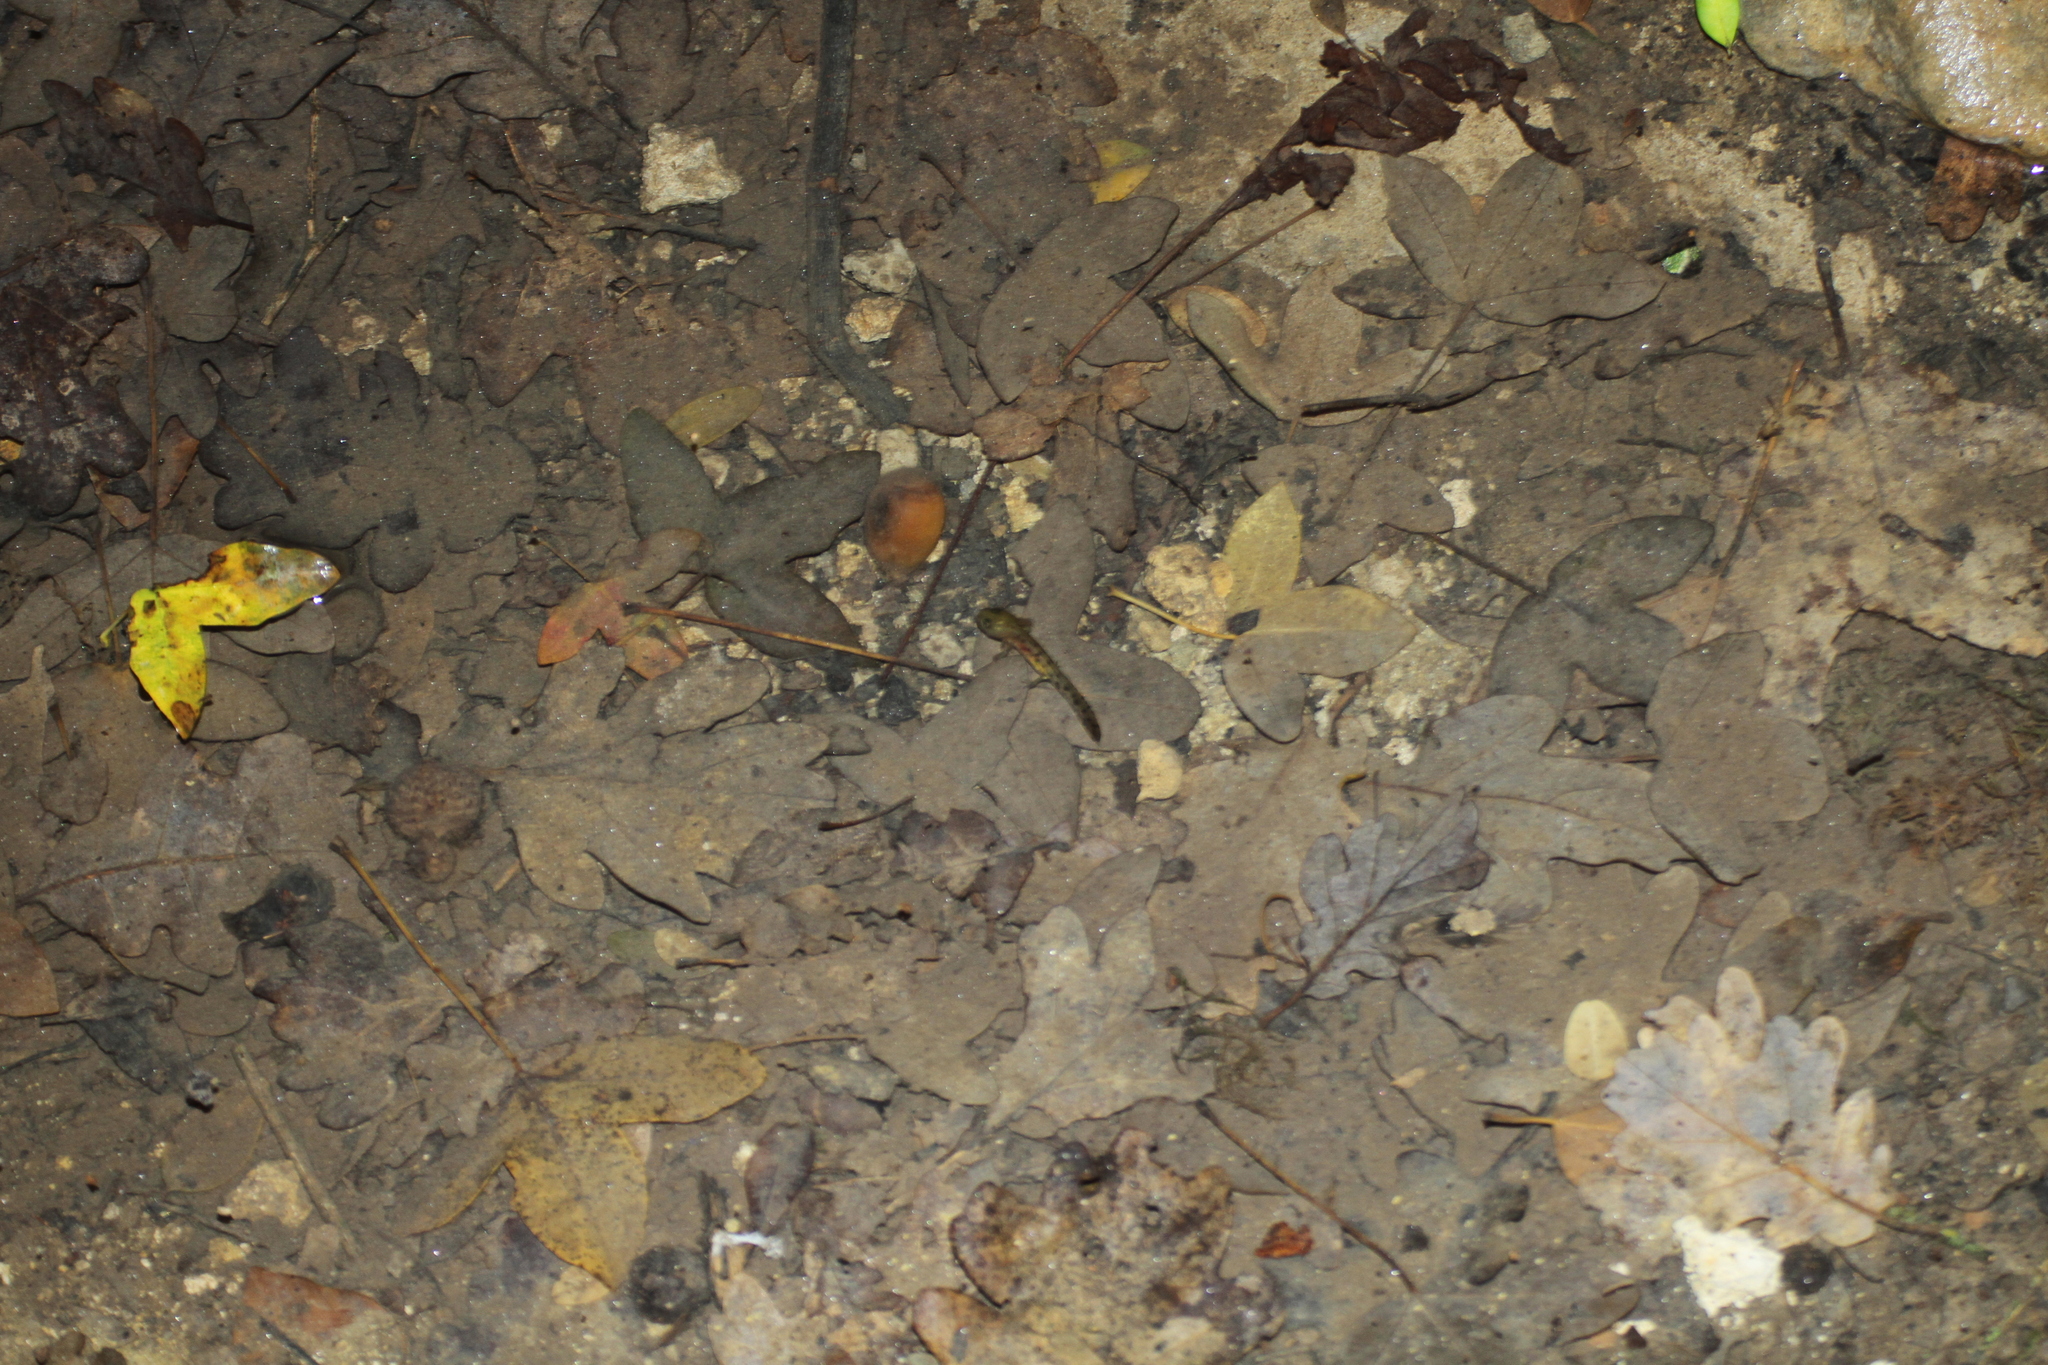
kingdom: Animalia
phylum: Chordata
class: Amphibia
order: Caudata
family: Salamandridae
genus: Salamandra
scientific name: Salamandra salamandra
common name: Fire salamander
